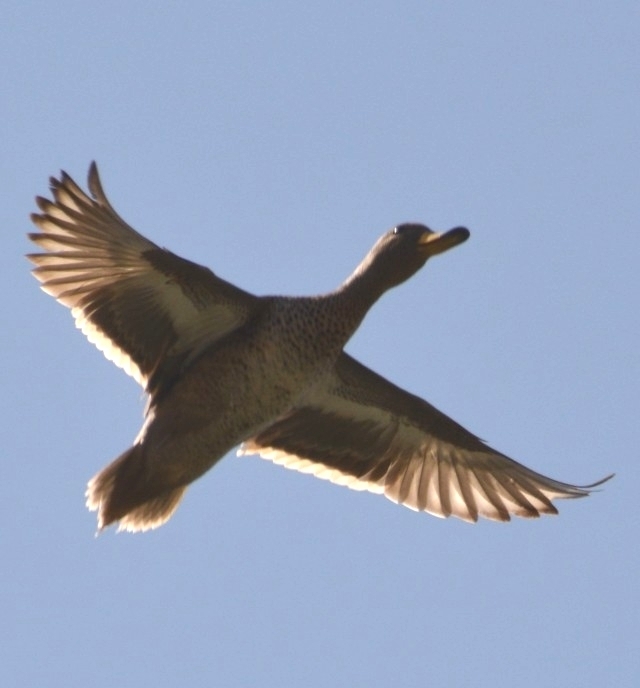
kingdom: Animalia
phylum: Chordata
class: Aves
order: Anseriformes
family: Anatidae
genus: Anas
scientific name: Anas flavirostris
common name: Yellow-billed teal
